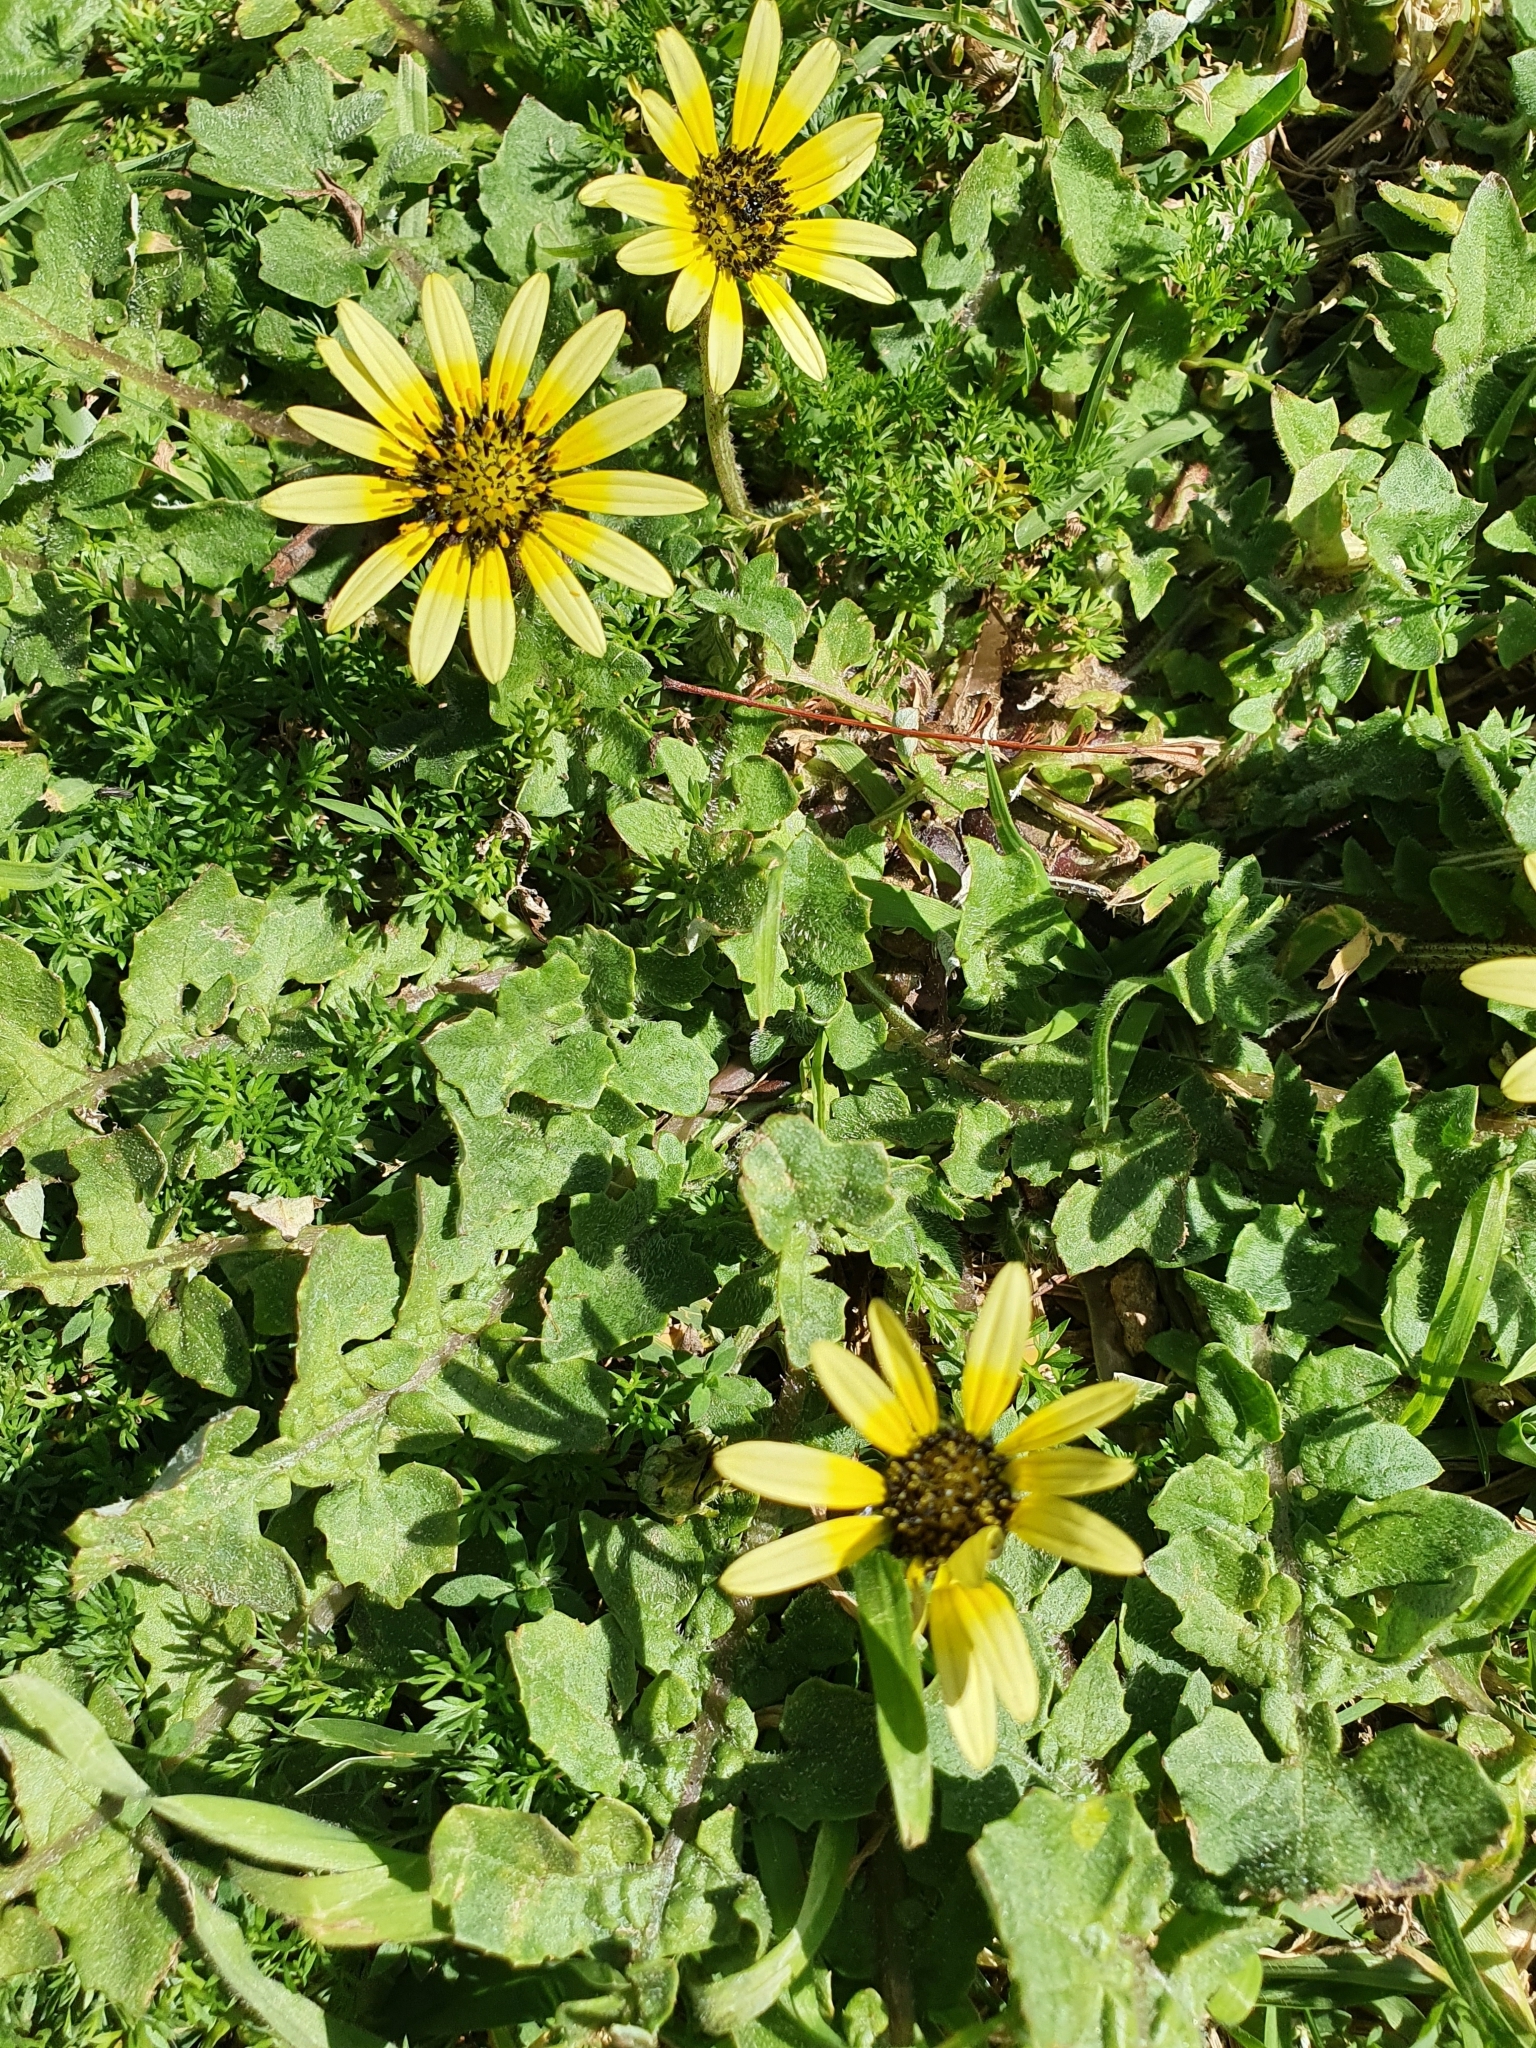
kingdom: Plantae
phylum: Tracheophyta
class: Magnoliopsida
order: Asterales
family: Asteraceae
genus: Arctotheca
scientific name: Arctotheca calendula
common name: Capeweed
